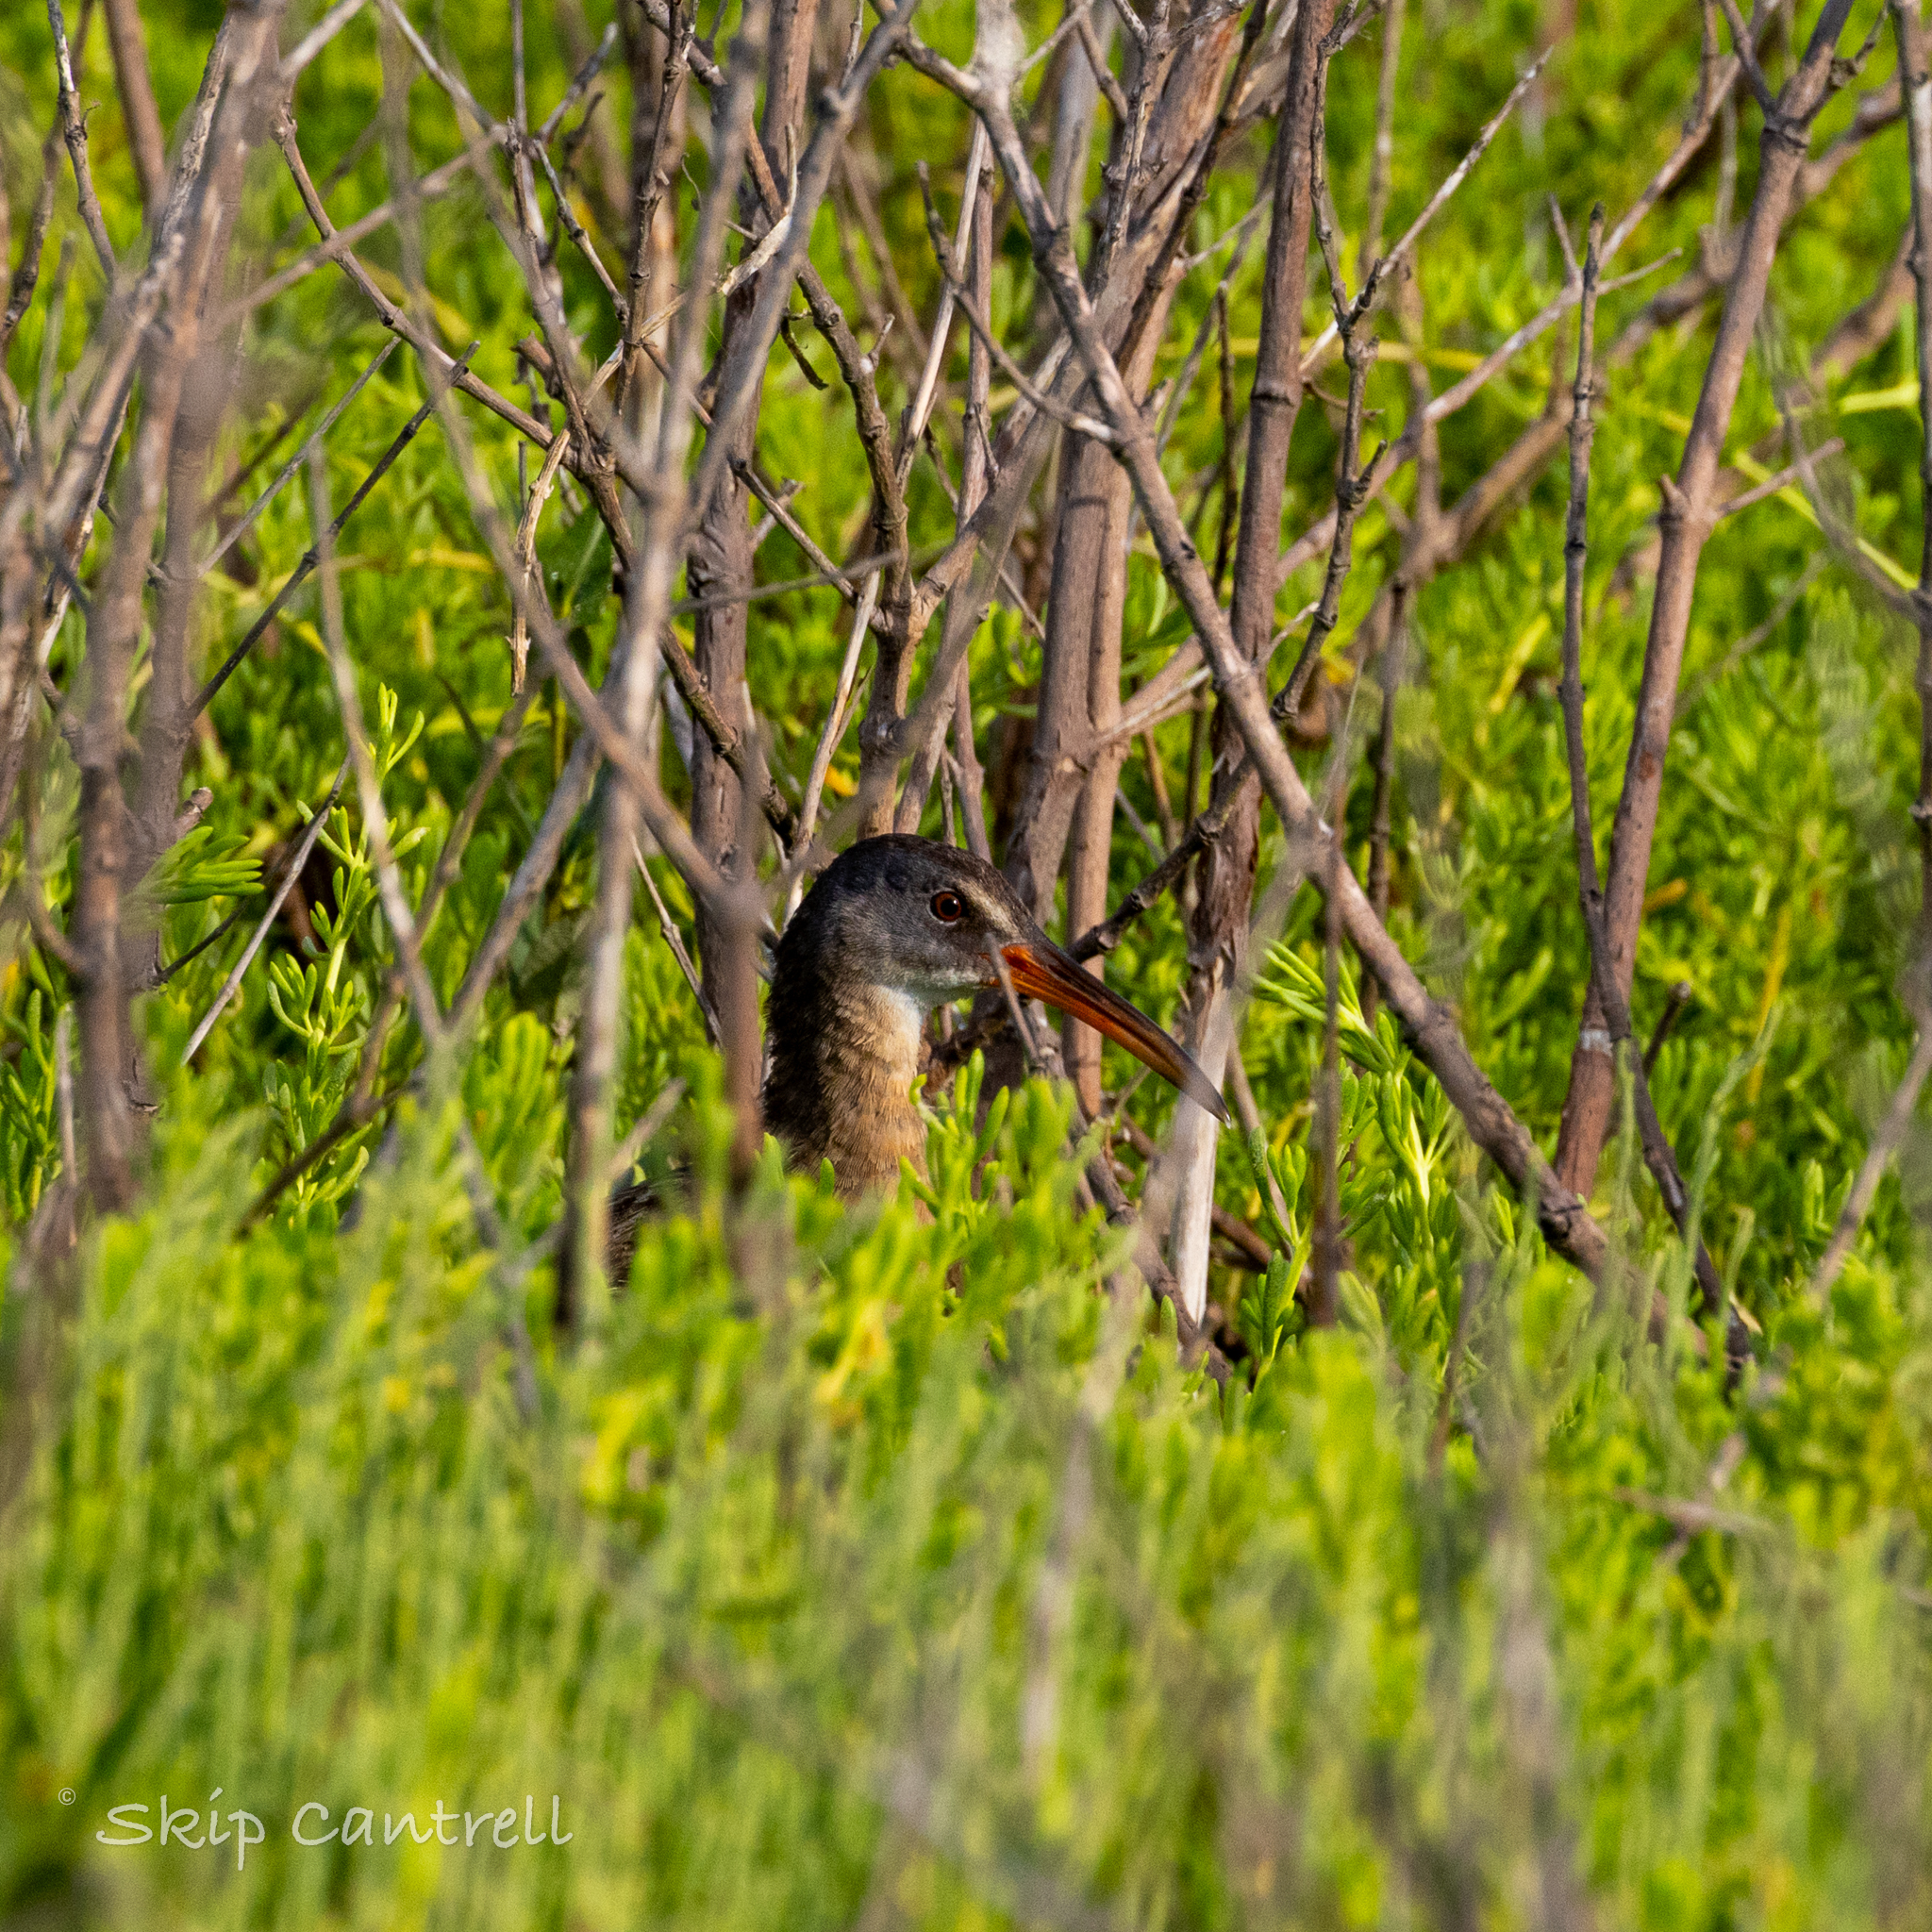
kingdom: Animalia
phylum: Chordata
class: Aves
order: Gruiformes
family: Rallidae
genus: Rallus
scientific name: Rallus crepitans
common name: Clapper rail
